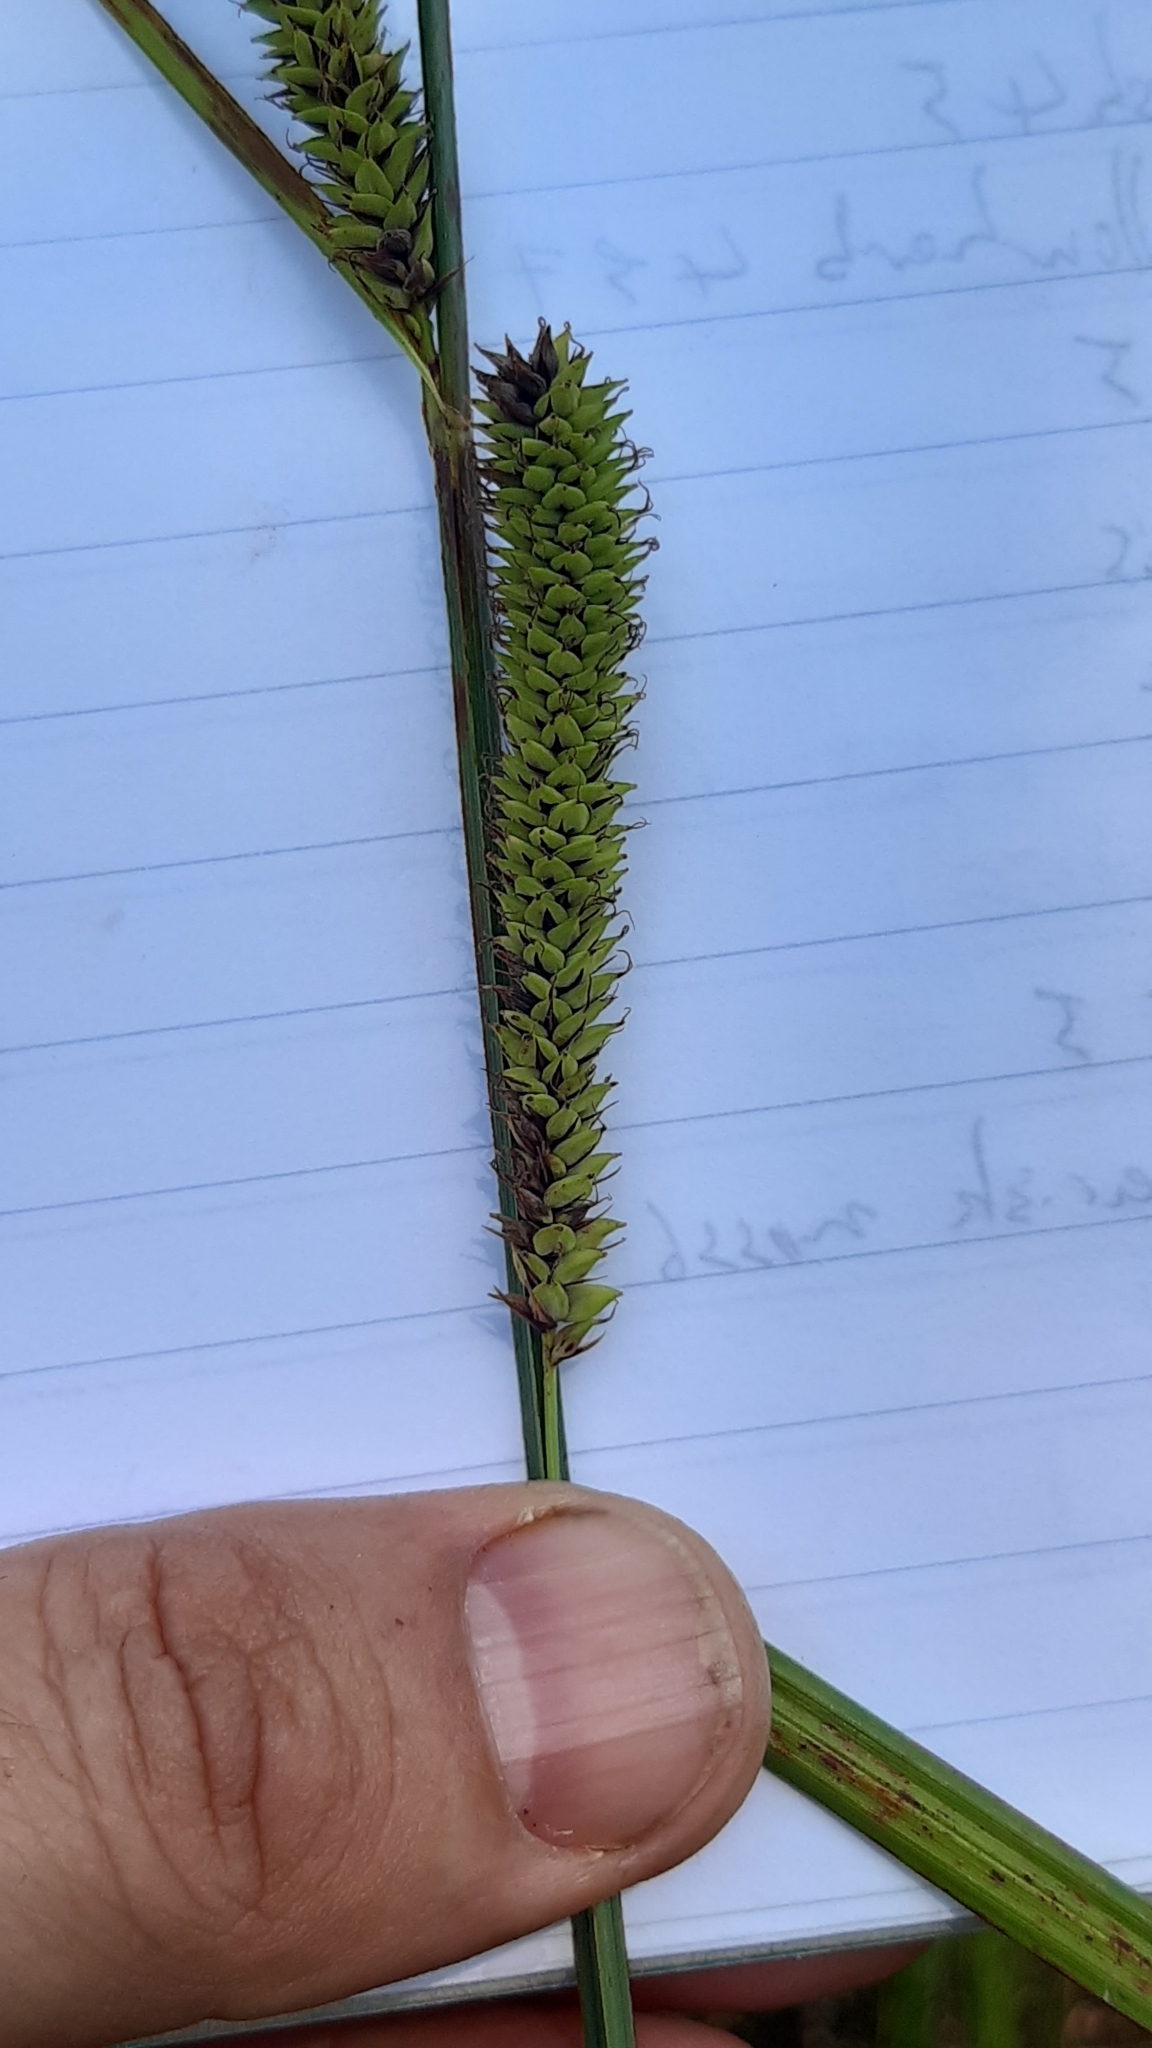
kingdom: Plantae
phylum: Tracheophyta
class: Liliopsida
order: Poales
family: Cyperaceae
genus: Carex
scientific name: Carex nigra
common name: Common sedge
